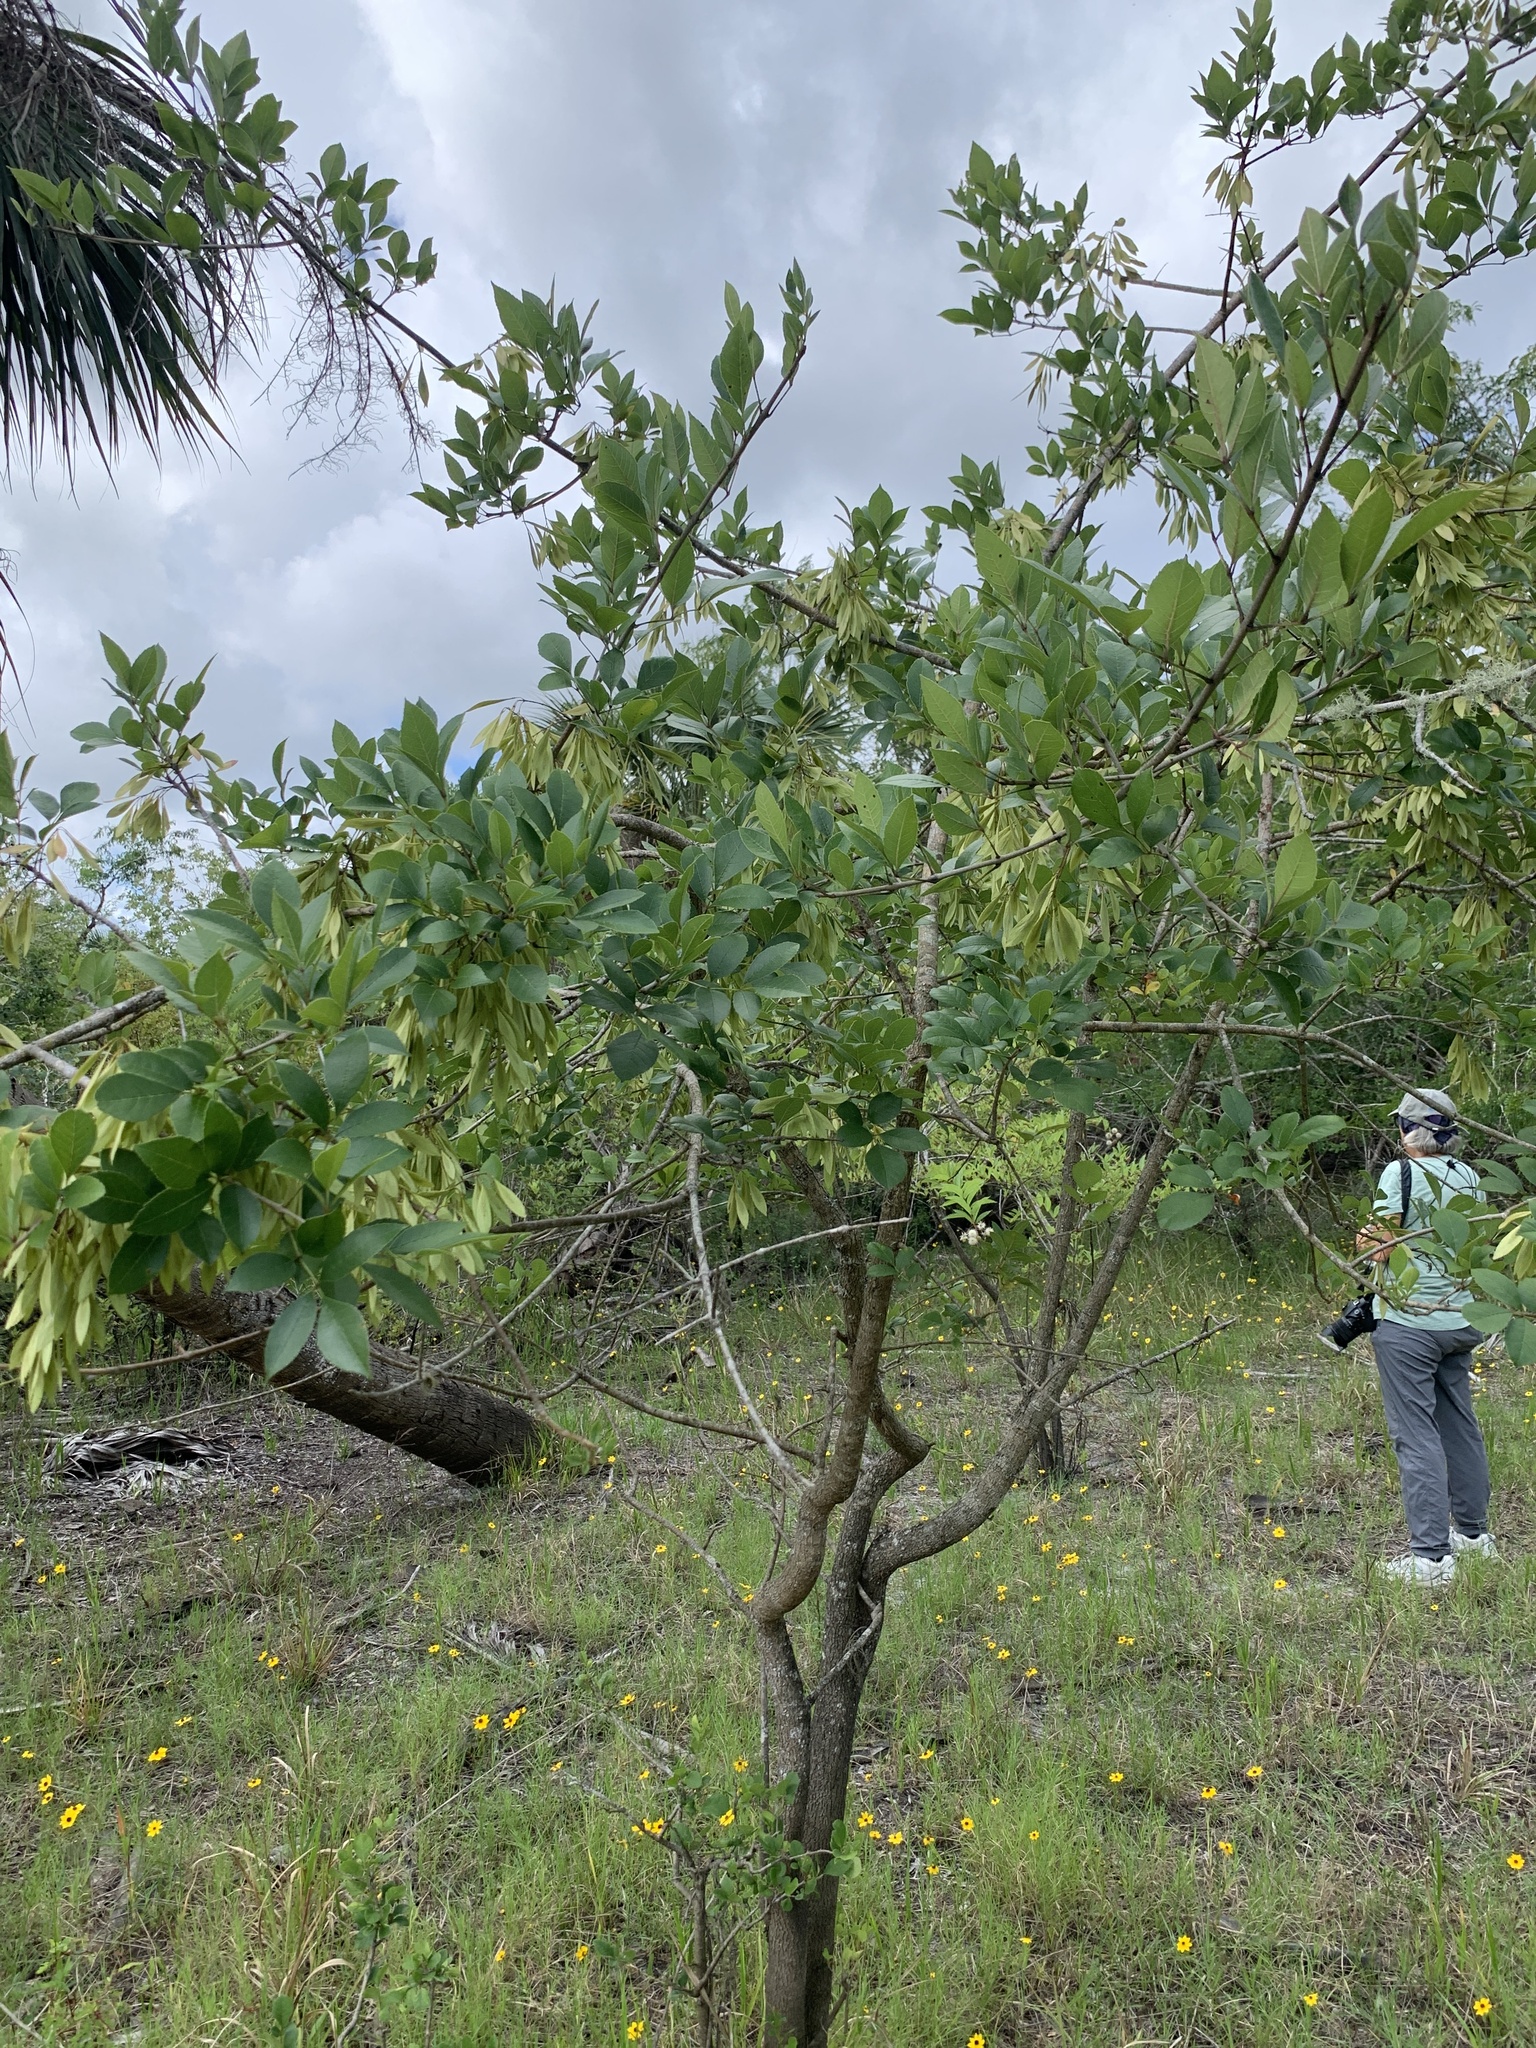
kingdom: Plantae
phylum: Tracheophyta
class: Magnoliopsida
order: Lamiales
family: Oleaceae
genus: Fraxinus
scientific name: Fraxinus caroliniana
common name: Carolina ash
